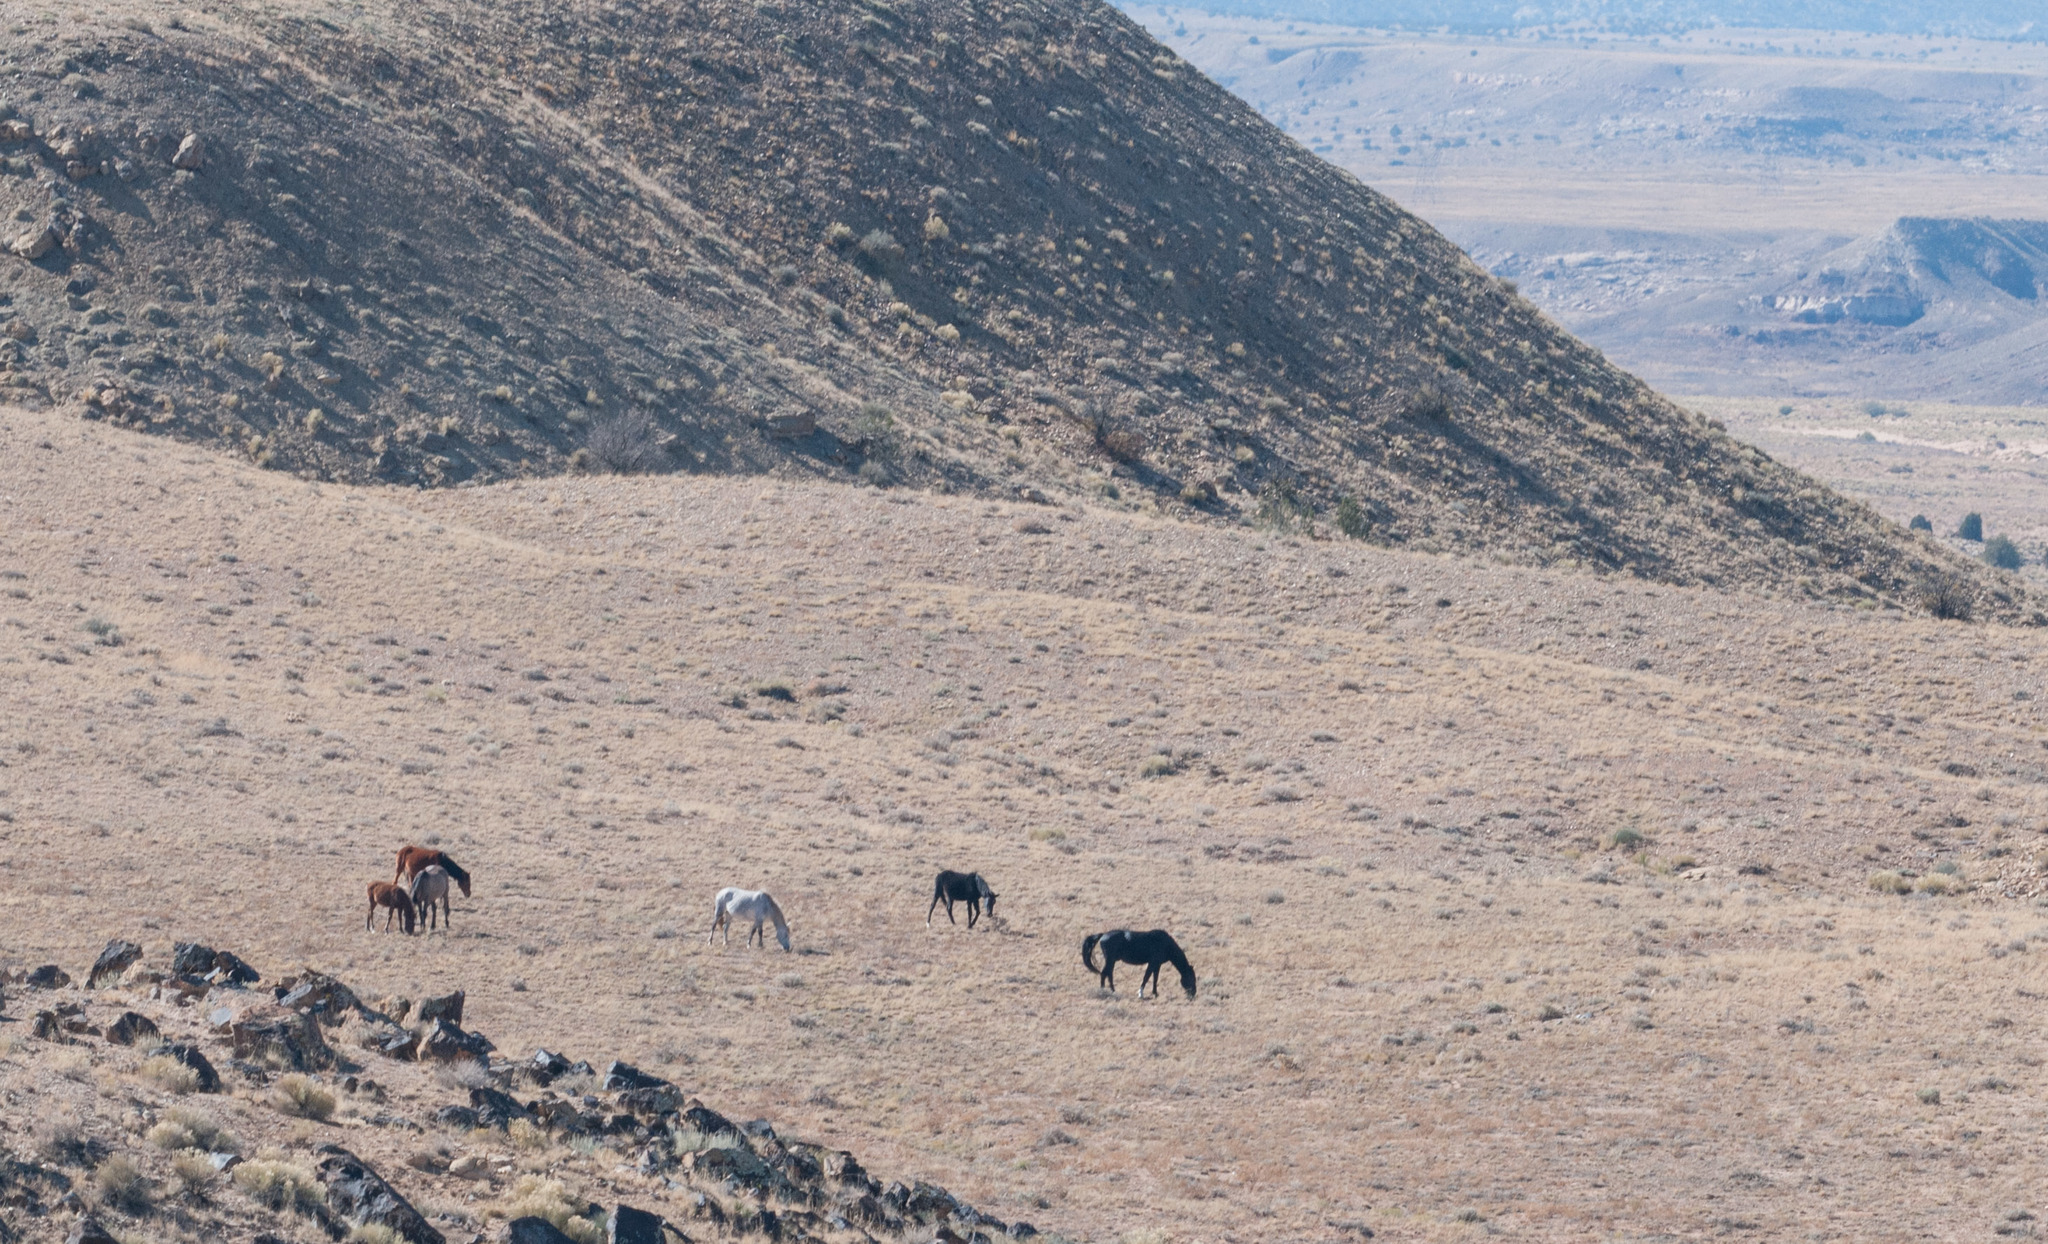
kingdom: Animalia
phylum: Chordata
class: Mammalia
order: Perissodactyla
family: Equidae
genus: Equus
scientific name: Equus caballus
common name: Horse
